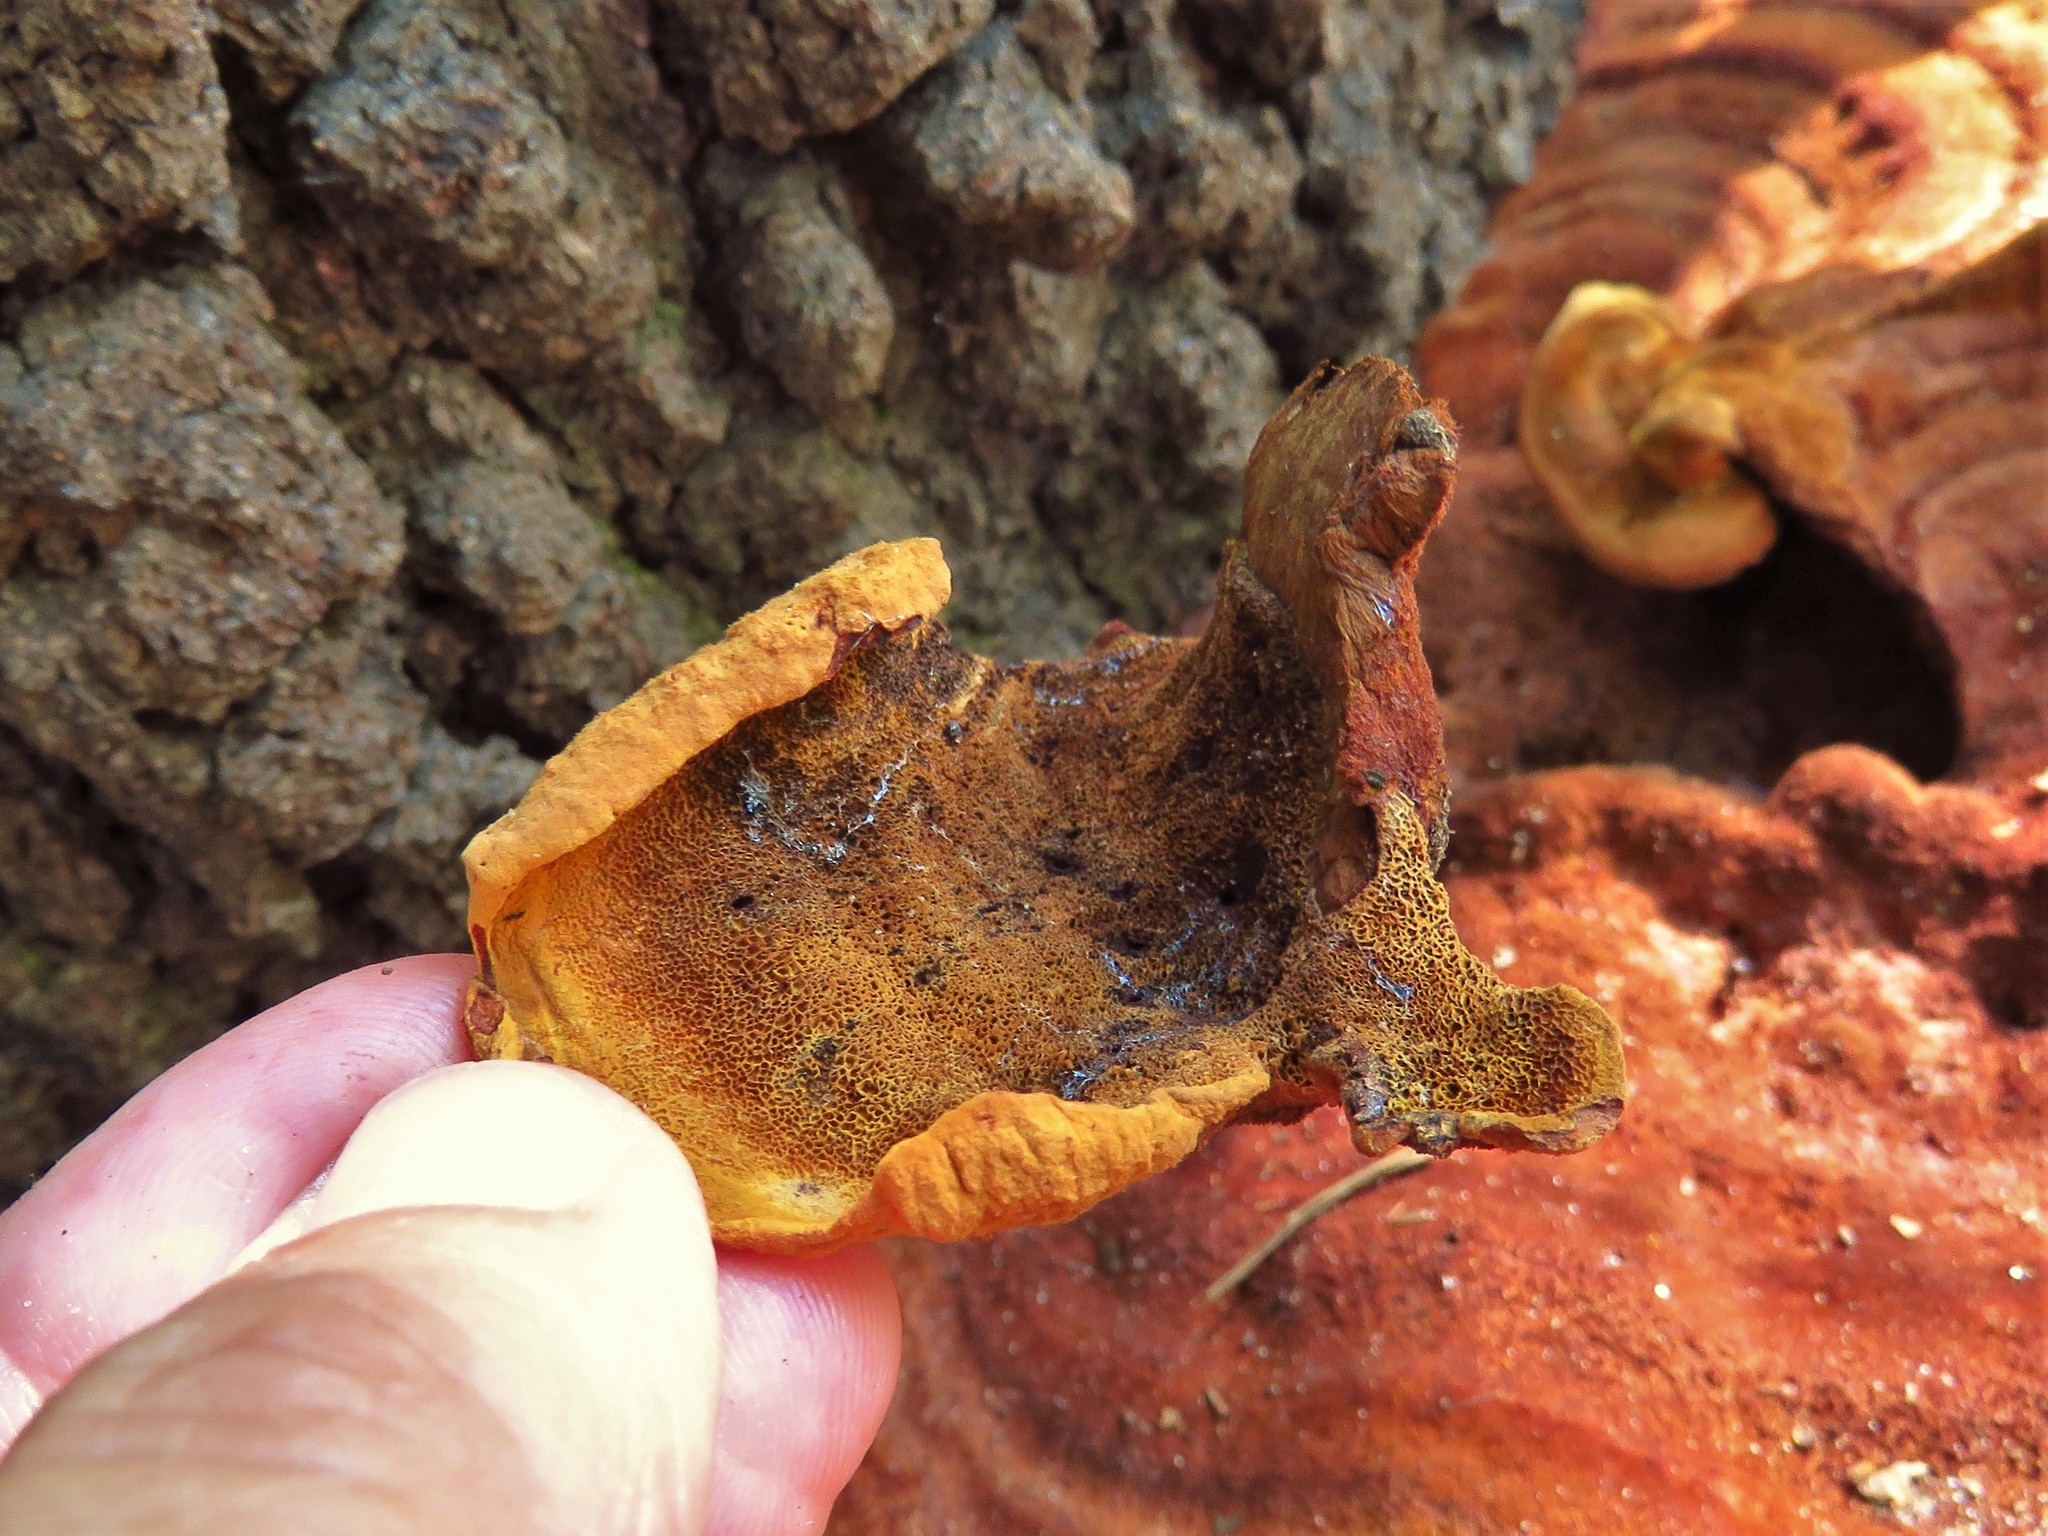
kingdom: Fungi
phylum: Basidiomycota
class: Agaricomycetes
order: Polyporales
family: Laetiporaceae
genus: Phaeolus
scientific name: Phaeolus schweinitzii
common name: Dyer's mazegill
